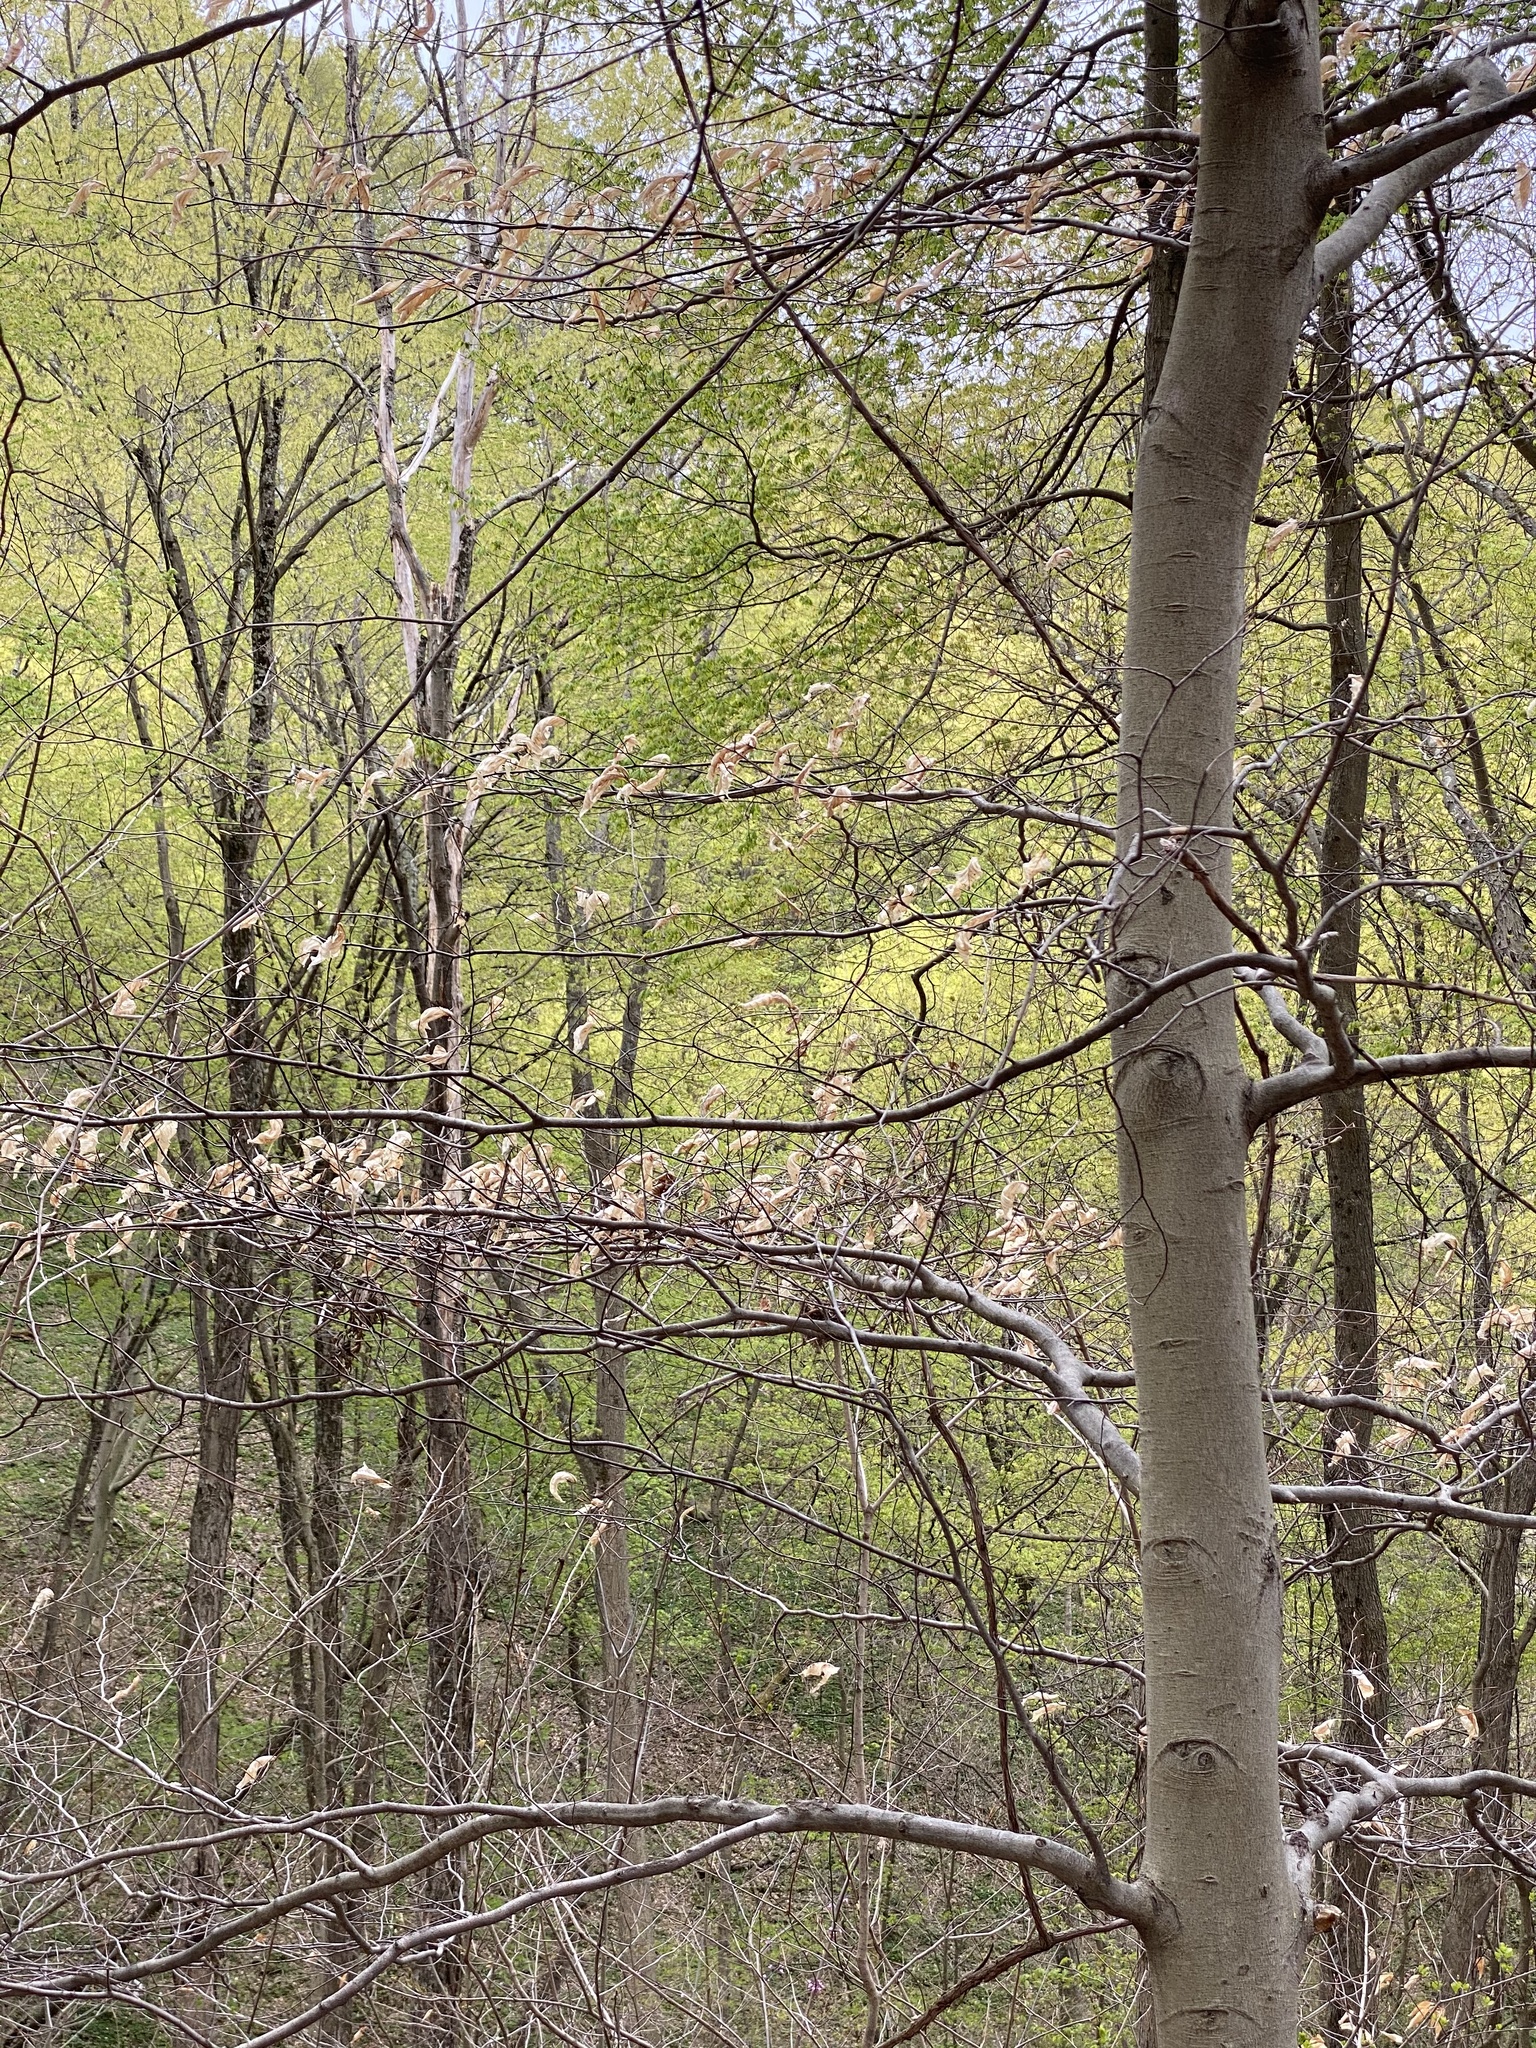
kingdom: Plantae
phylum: Tracheophyta
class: Magnoliopsida
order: Fagales
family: Fagaceae
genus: Fagus
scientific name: Fagus grandifolia
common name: American beech
